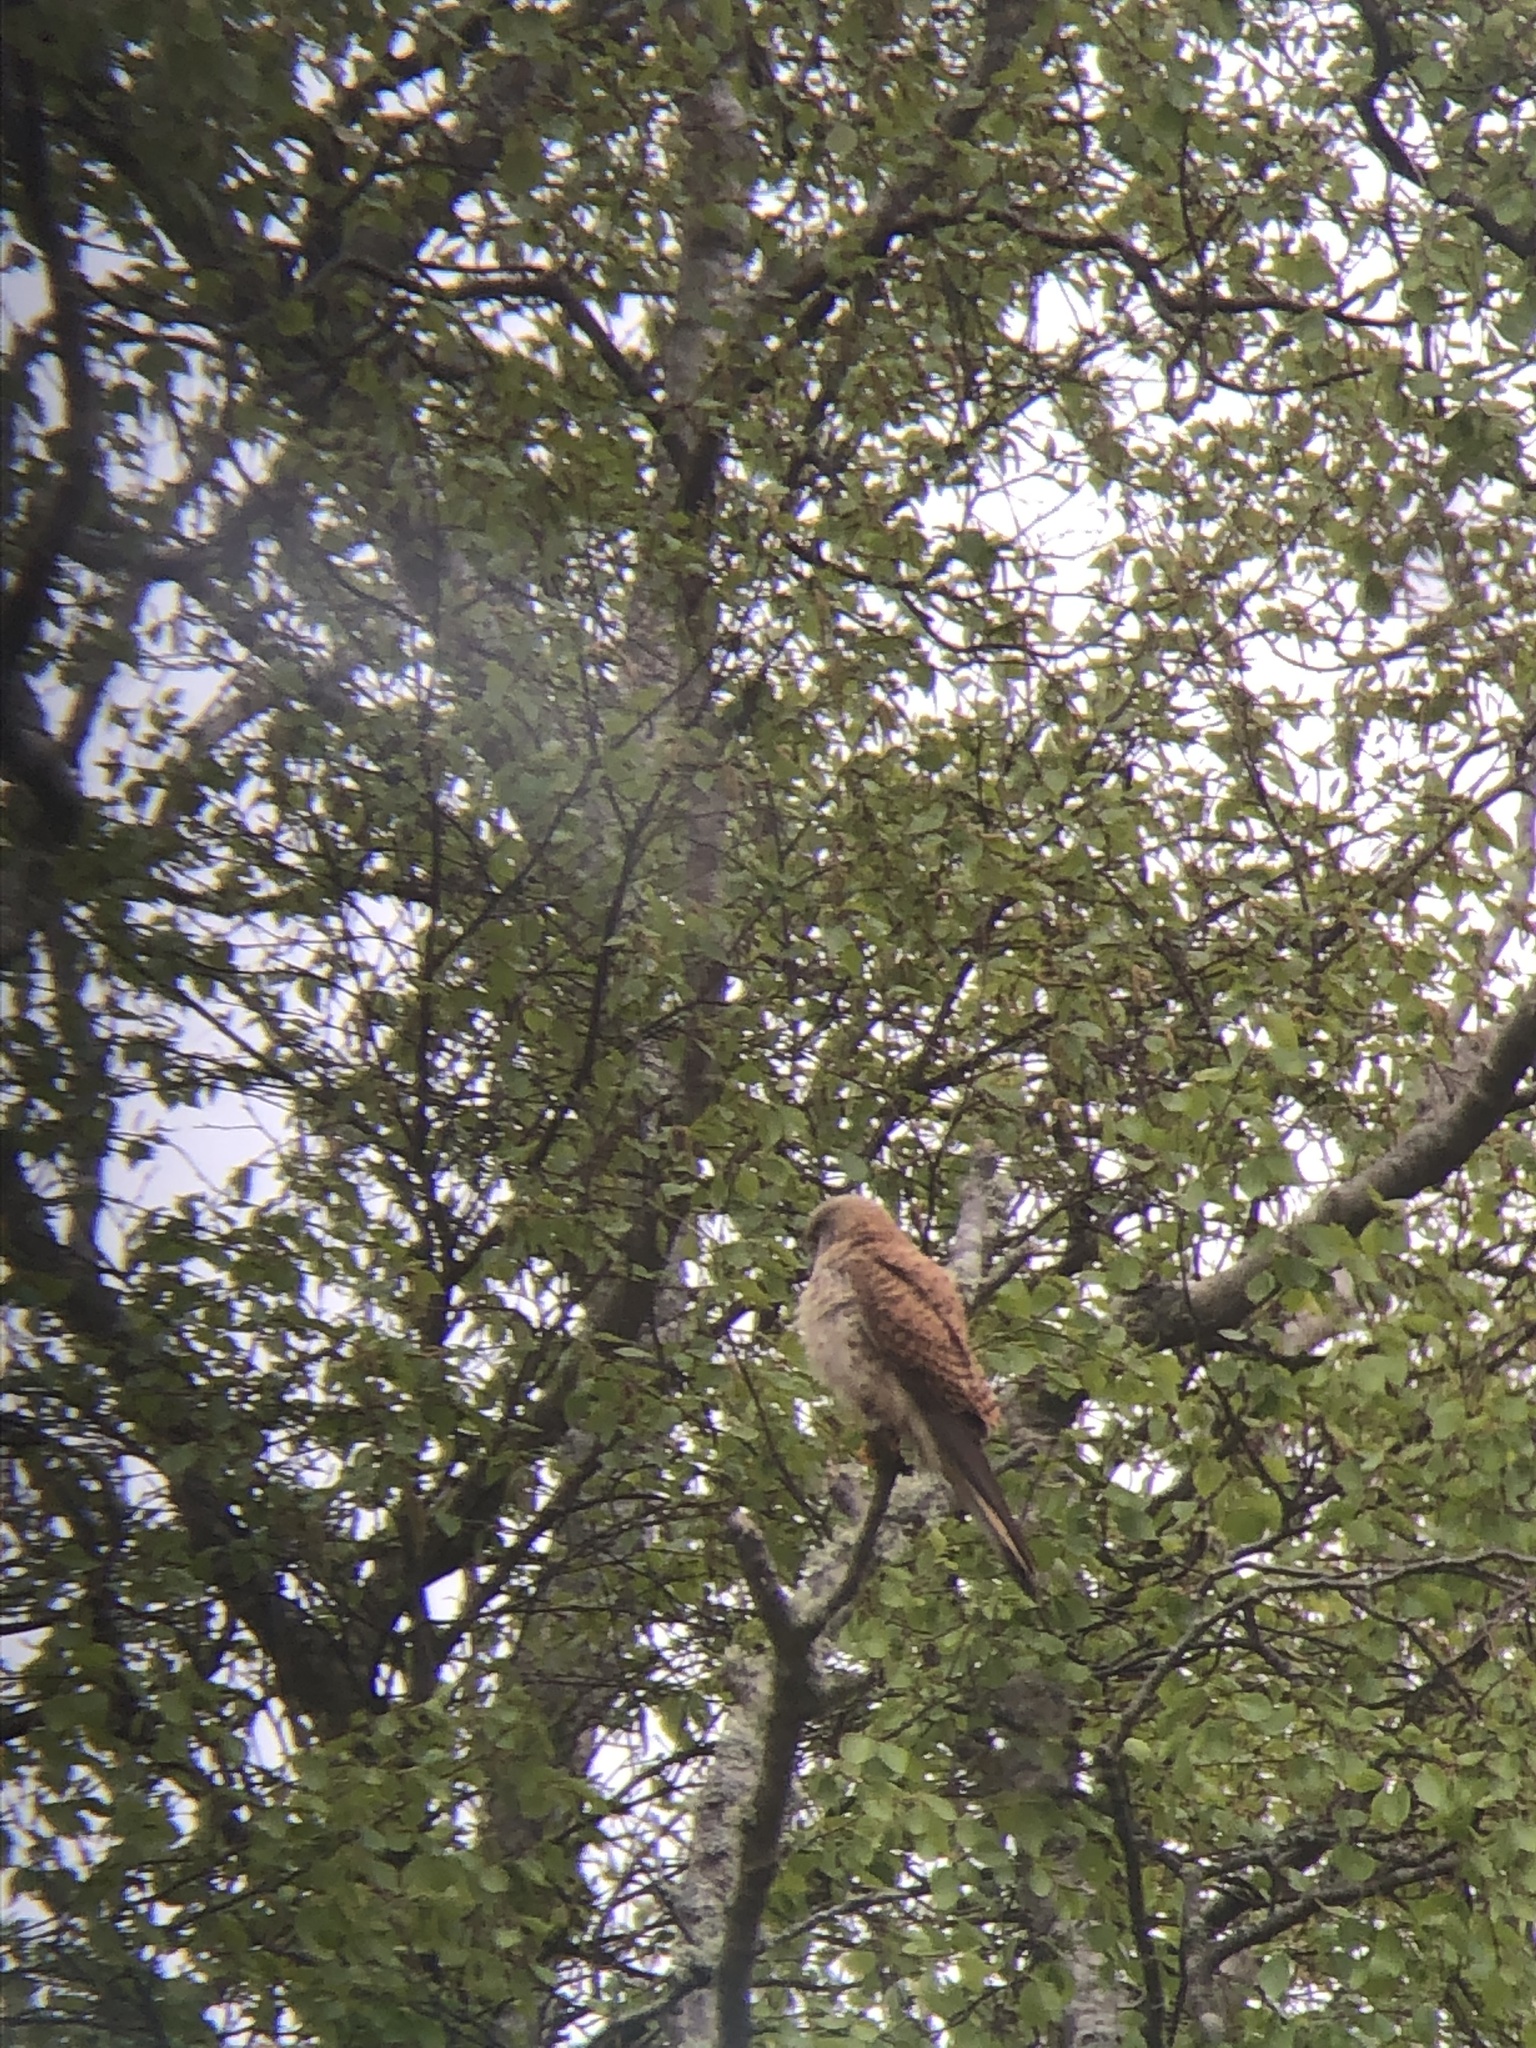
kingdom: Animalia
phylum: Chordata
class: Aves
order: Falconiformes
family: Falconidae
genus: Falco
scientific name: Falco tinnunculus
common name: Common kestrel
